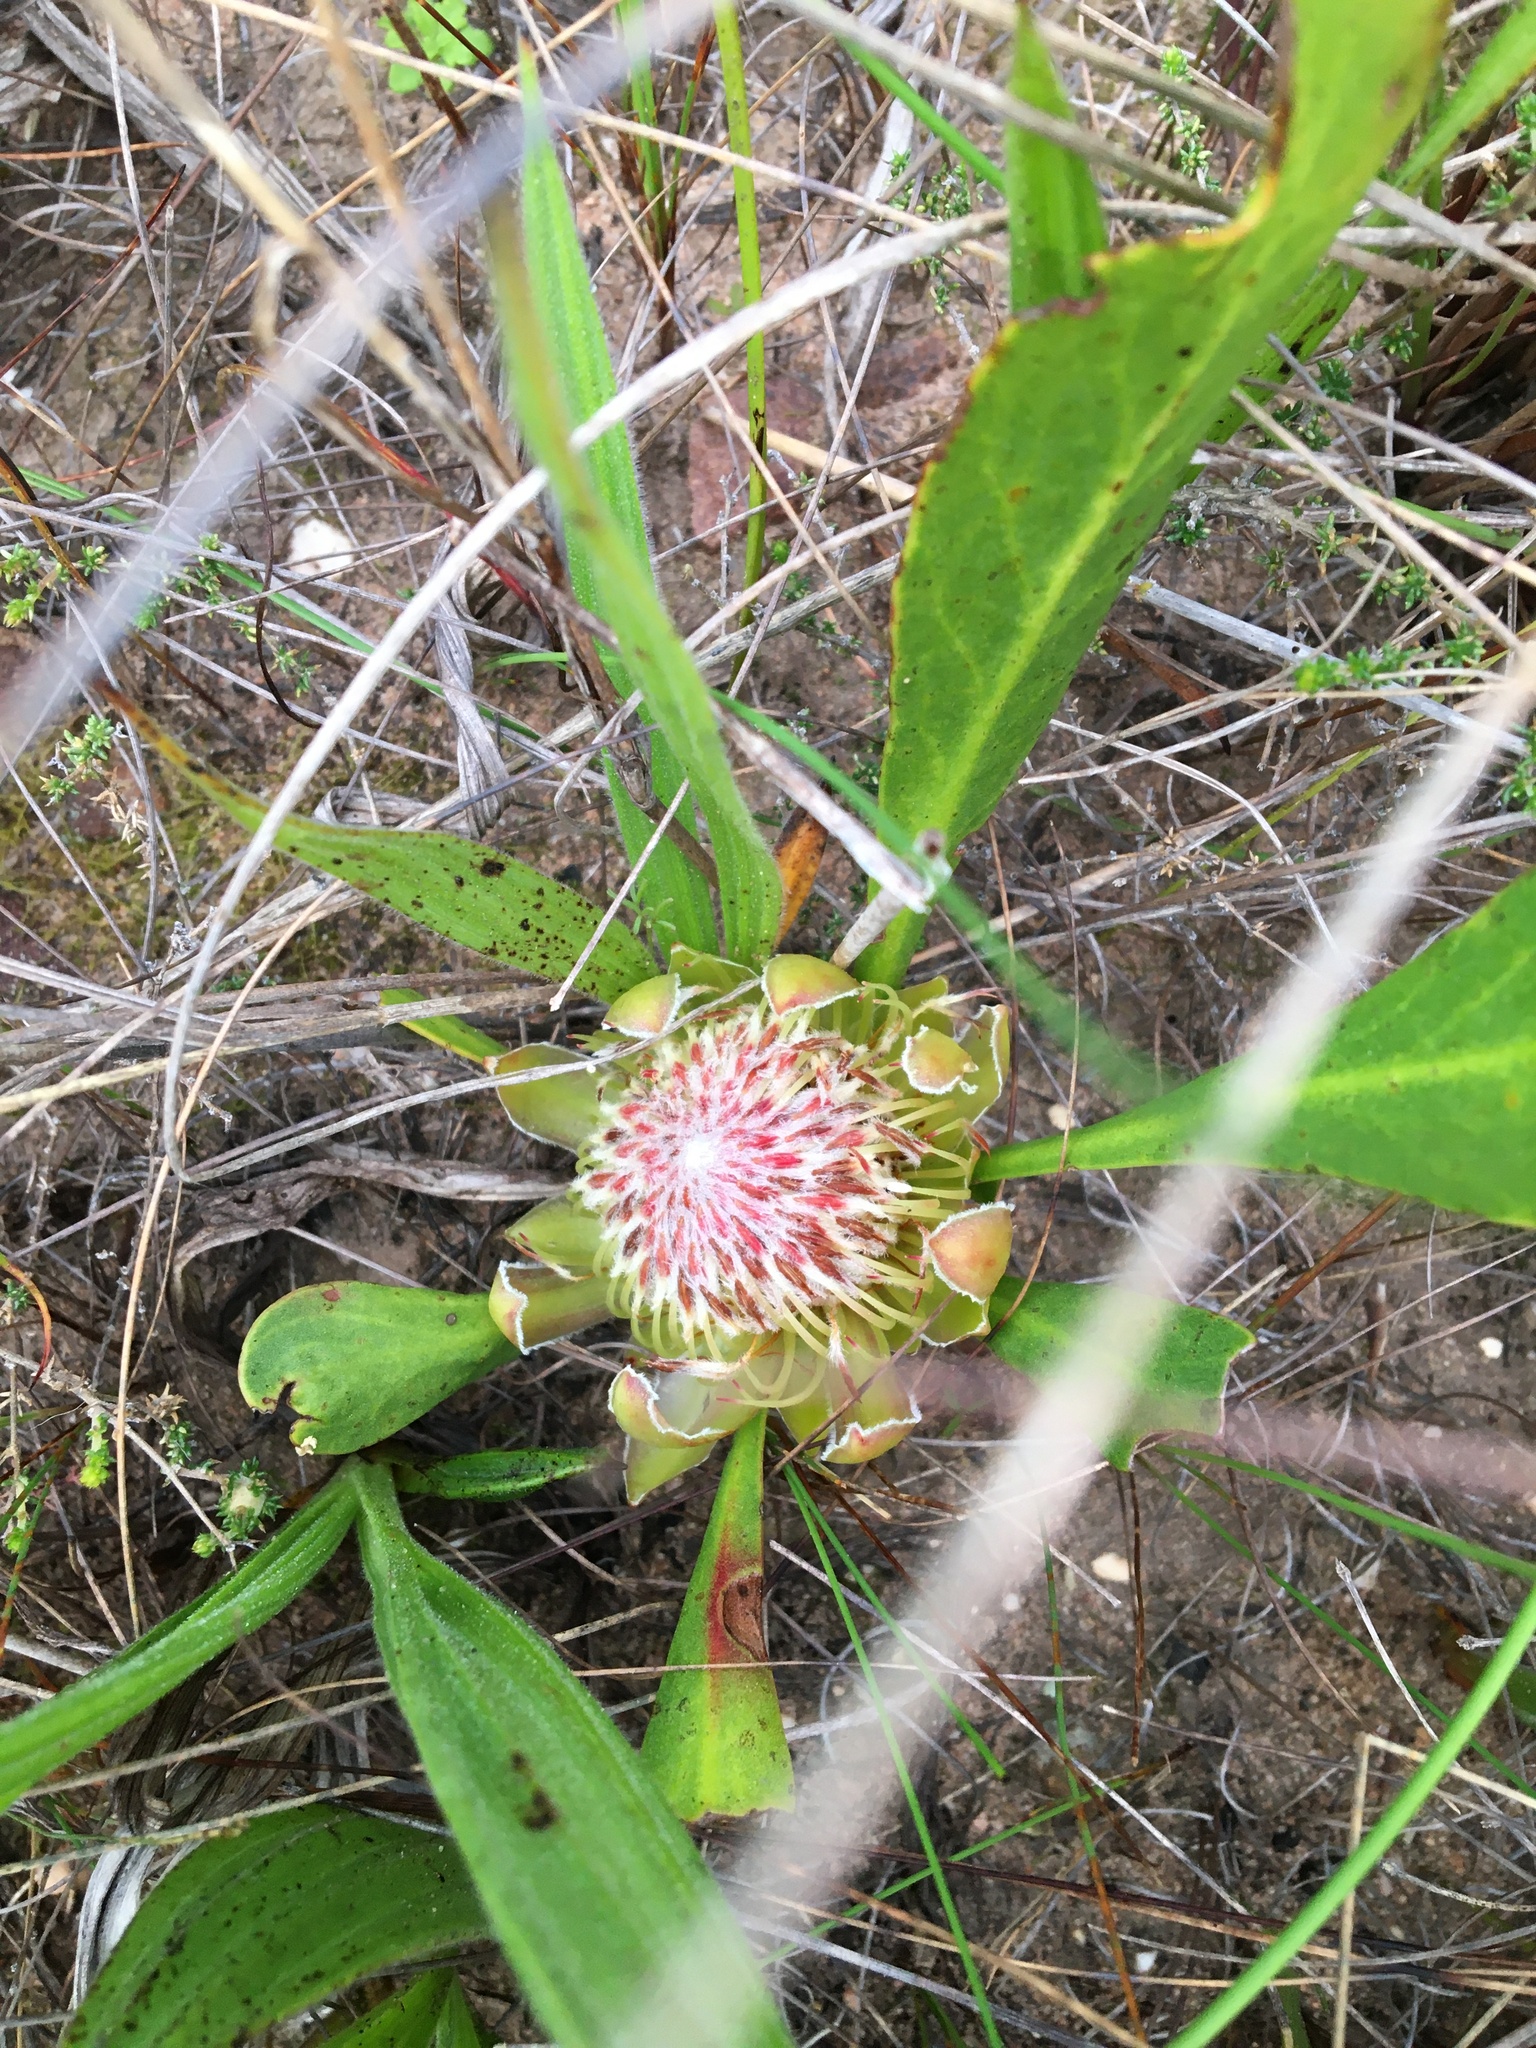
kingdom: Plantae
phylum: Tracheophyta
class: Magnoliopsida
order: Proteales
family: Proteaceae
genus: Protea
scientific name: Protea acaulos
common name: Common ground sugarbush
